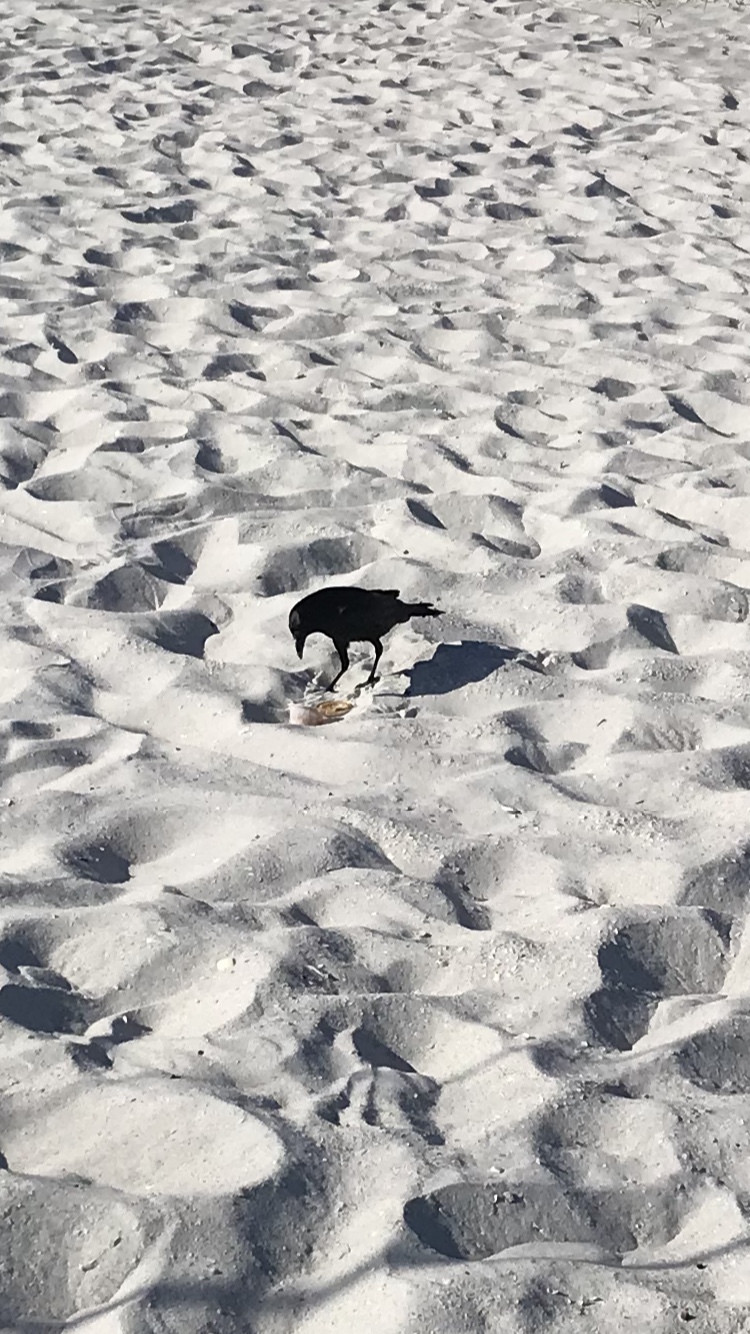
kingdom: Animalia
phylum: Chordata
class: Aves
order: Passeriformes
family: Corvidae
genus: Corvus
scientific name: Corvus ossifragus
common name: Fish crow
